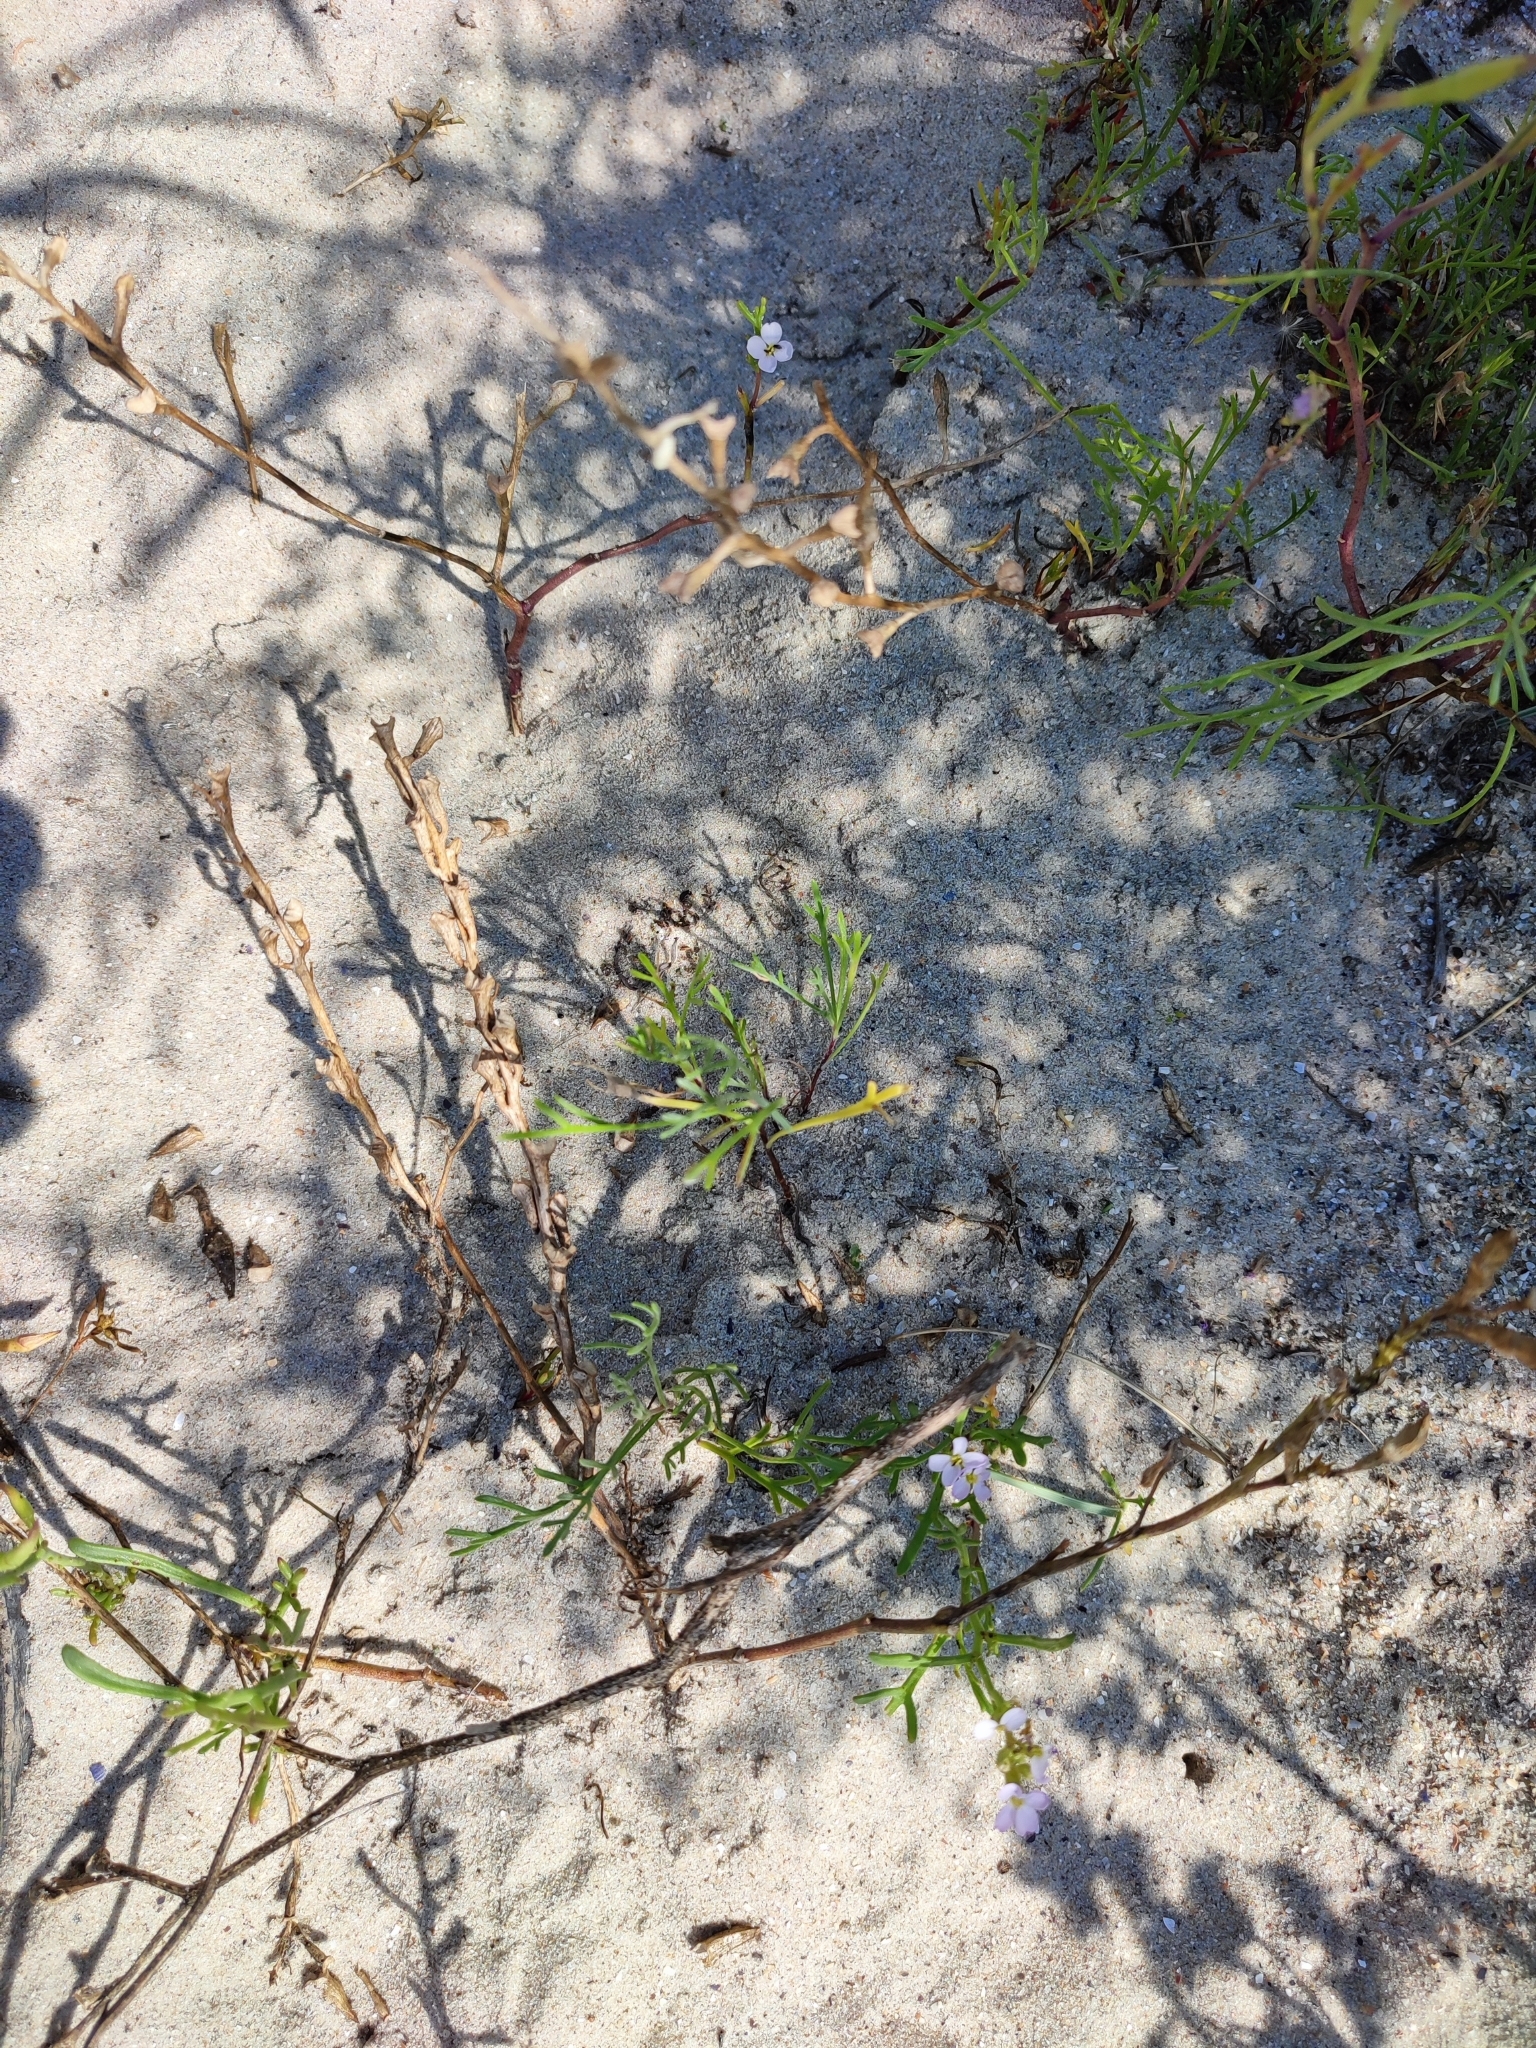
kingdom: Plantae
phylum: Tracheophyta
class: Magnoliopsida
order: Brassicales
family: Brassicaceae
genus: Cakile
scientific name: Cakile maritima
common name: Sea rocket
